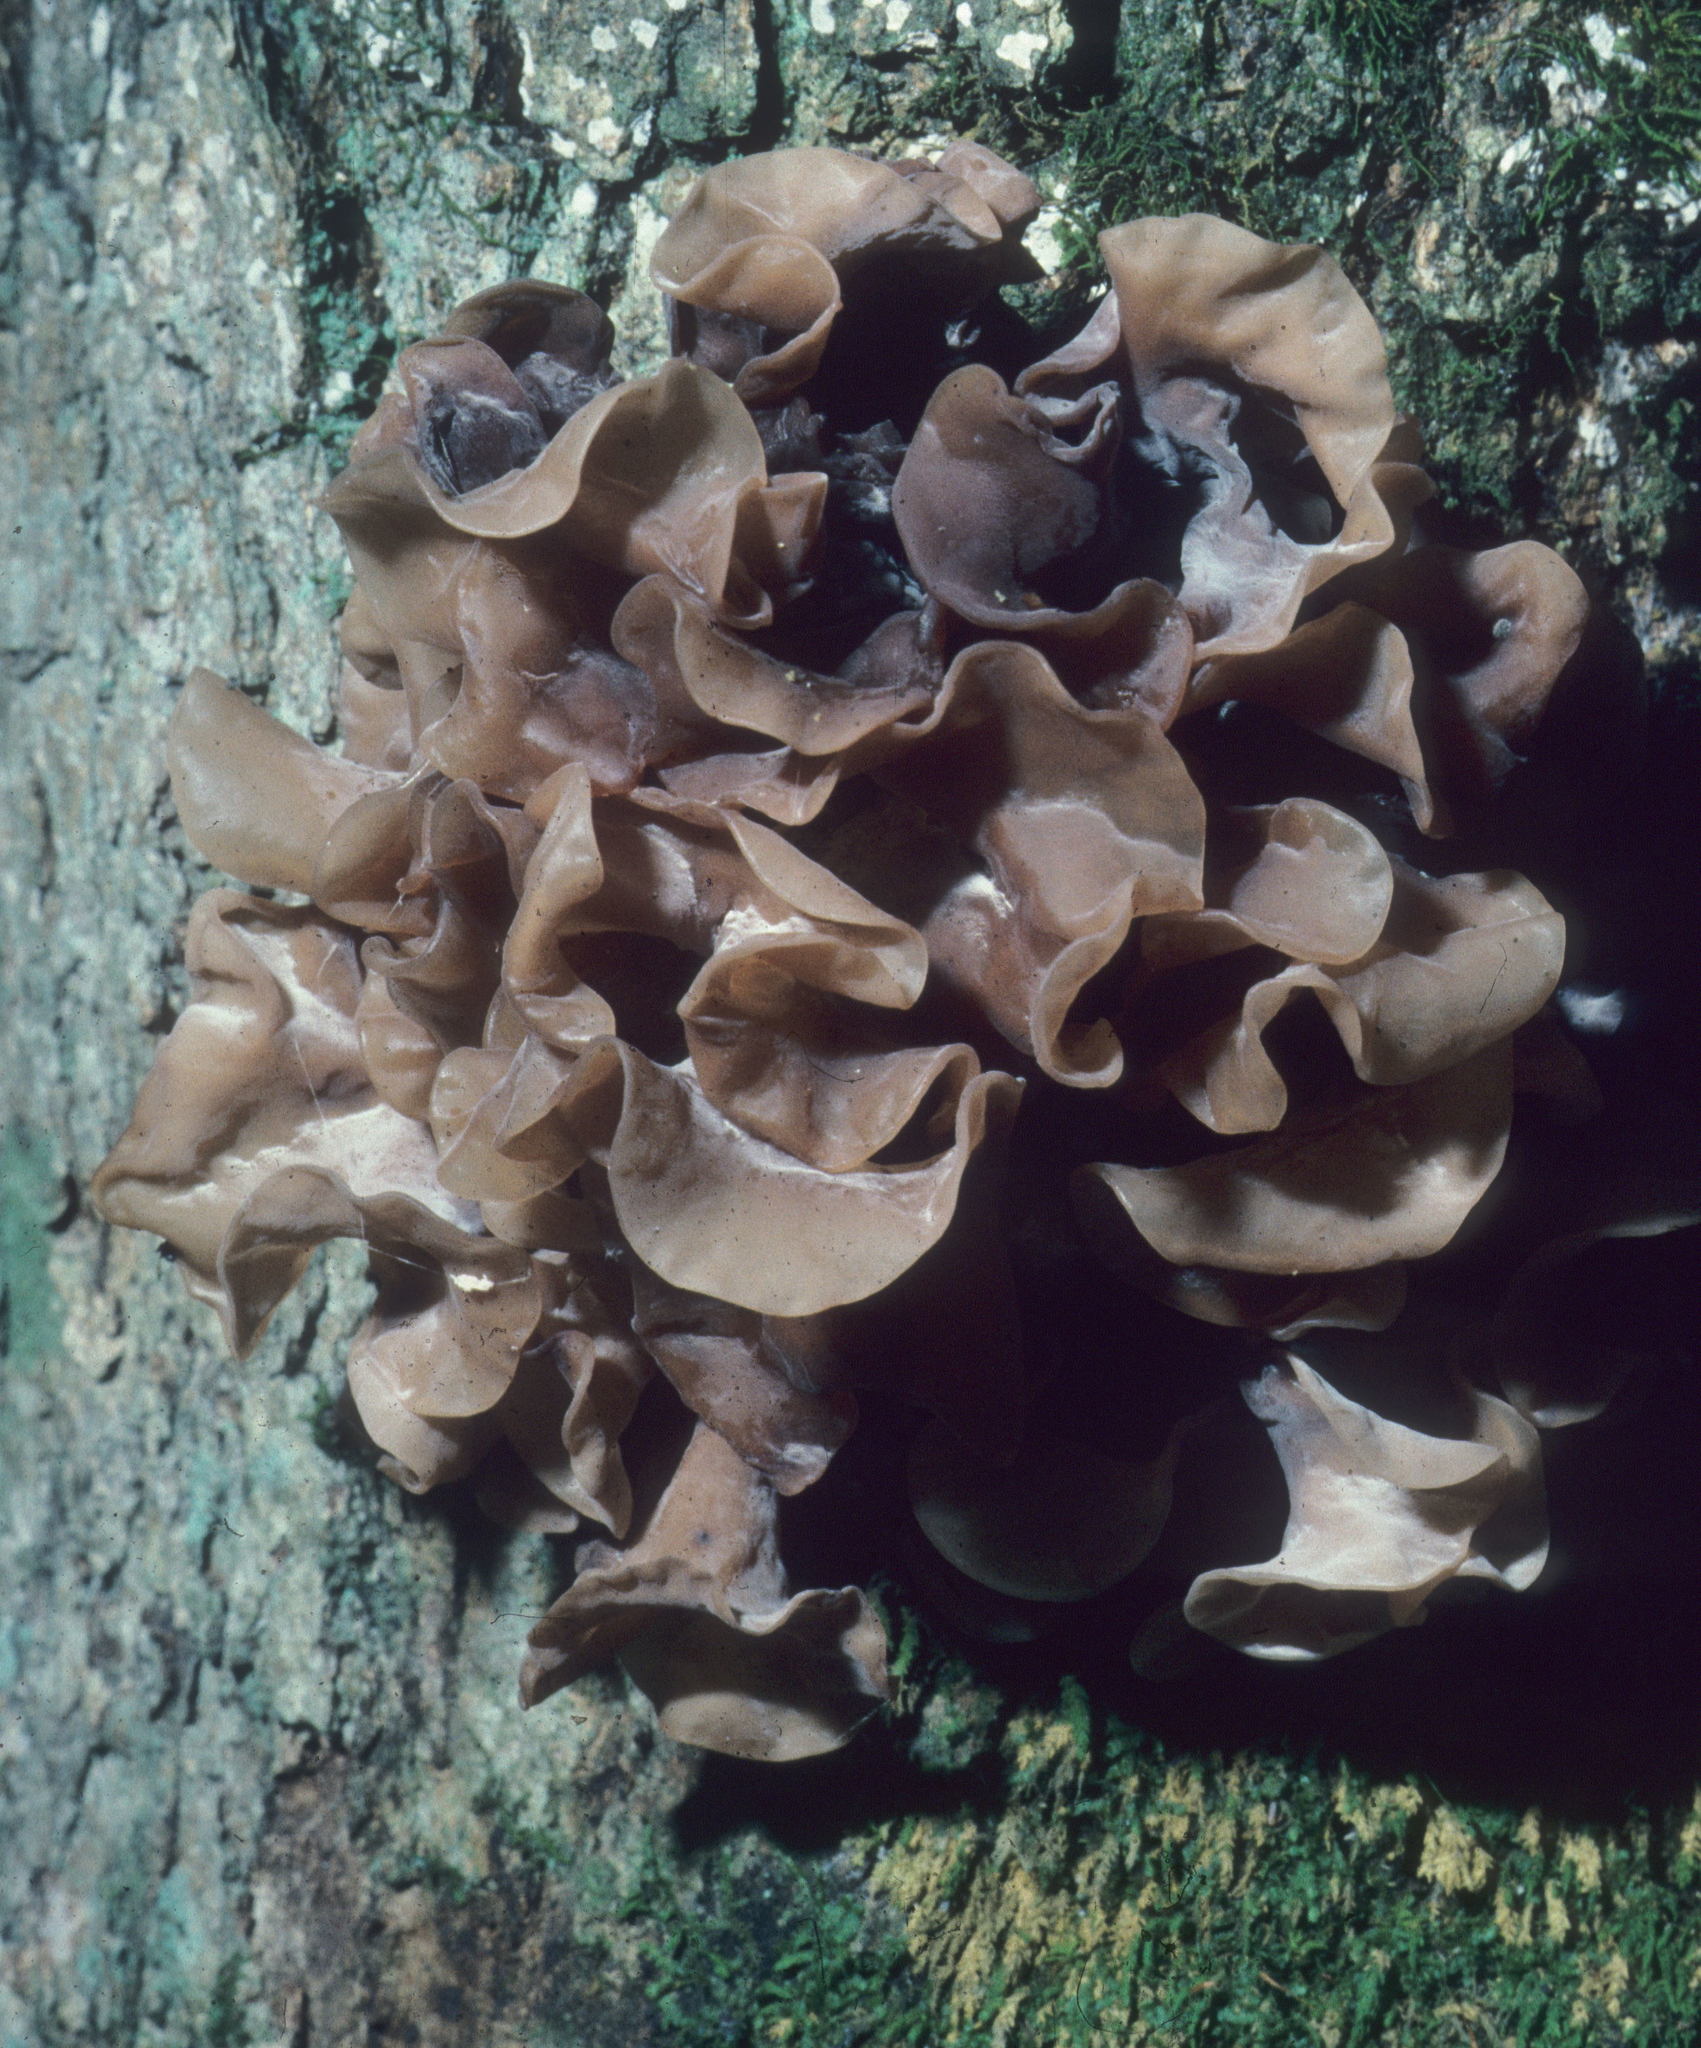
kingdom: Fungi
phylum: Basidiomycota
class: Tremellomycetes
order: Tremellales
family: Tremellaceae
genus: Phaeotremella
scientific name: Phaeotremella foliacea
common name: Leafy brain
